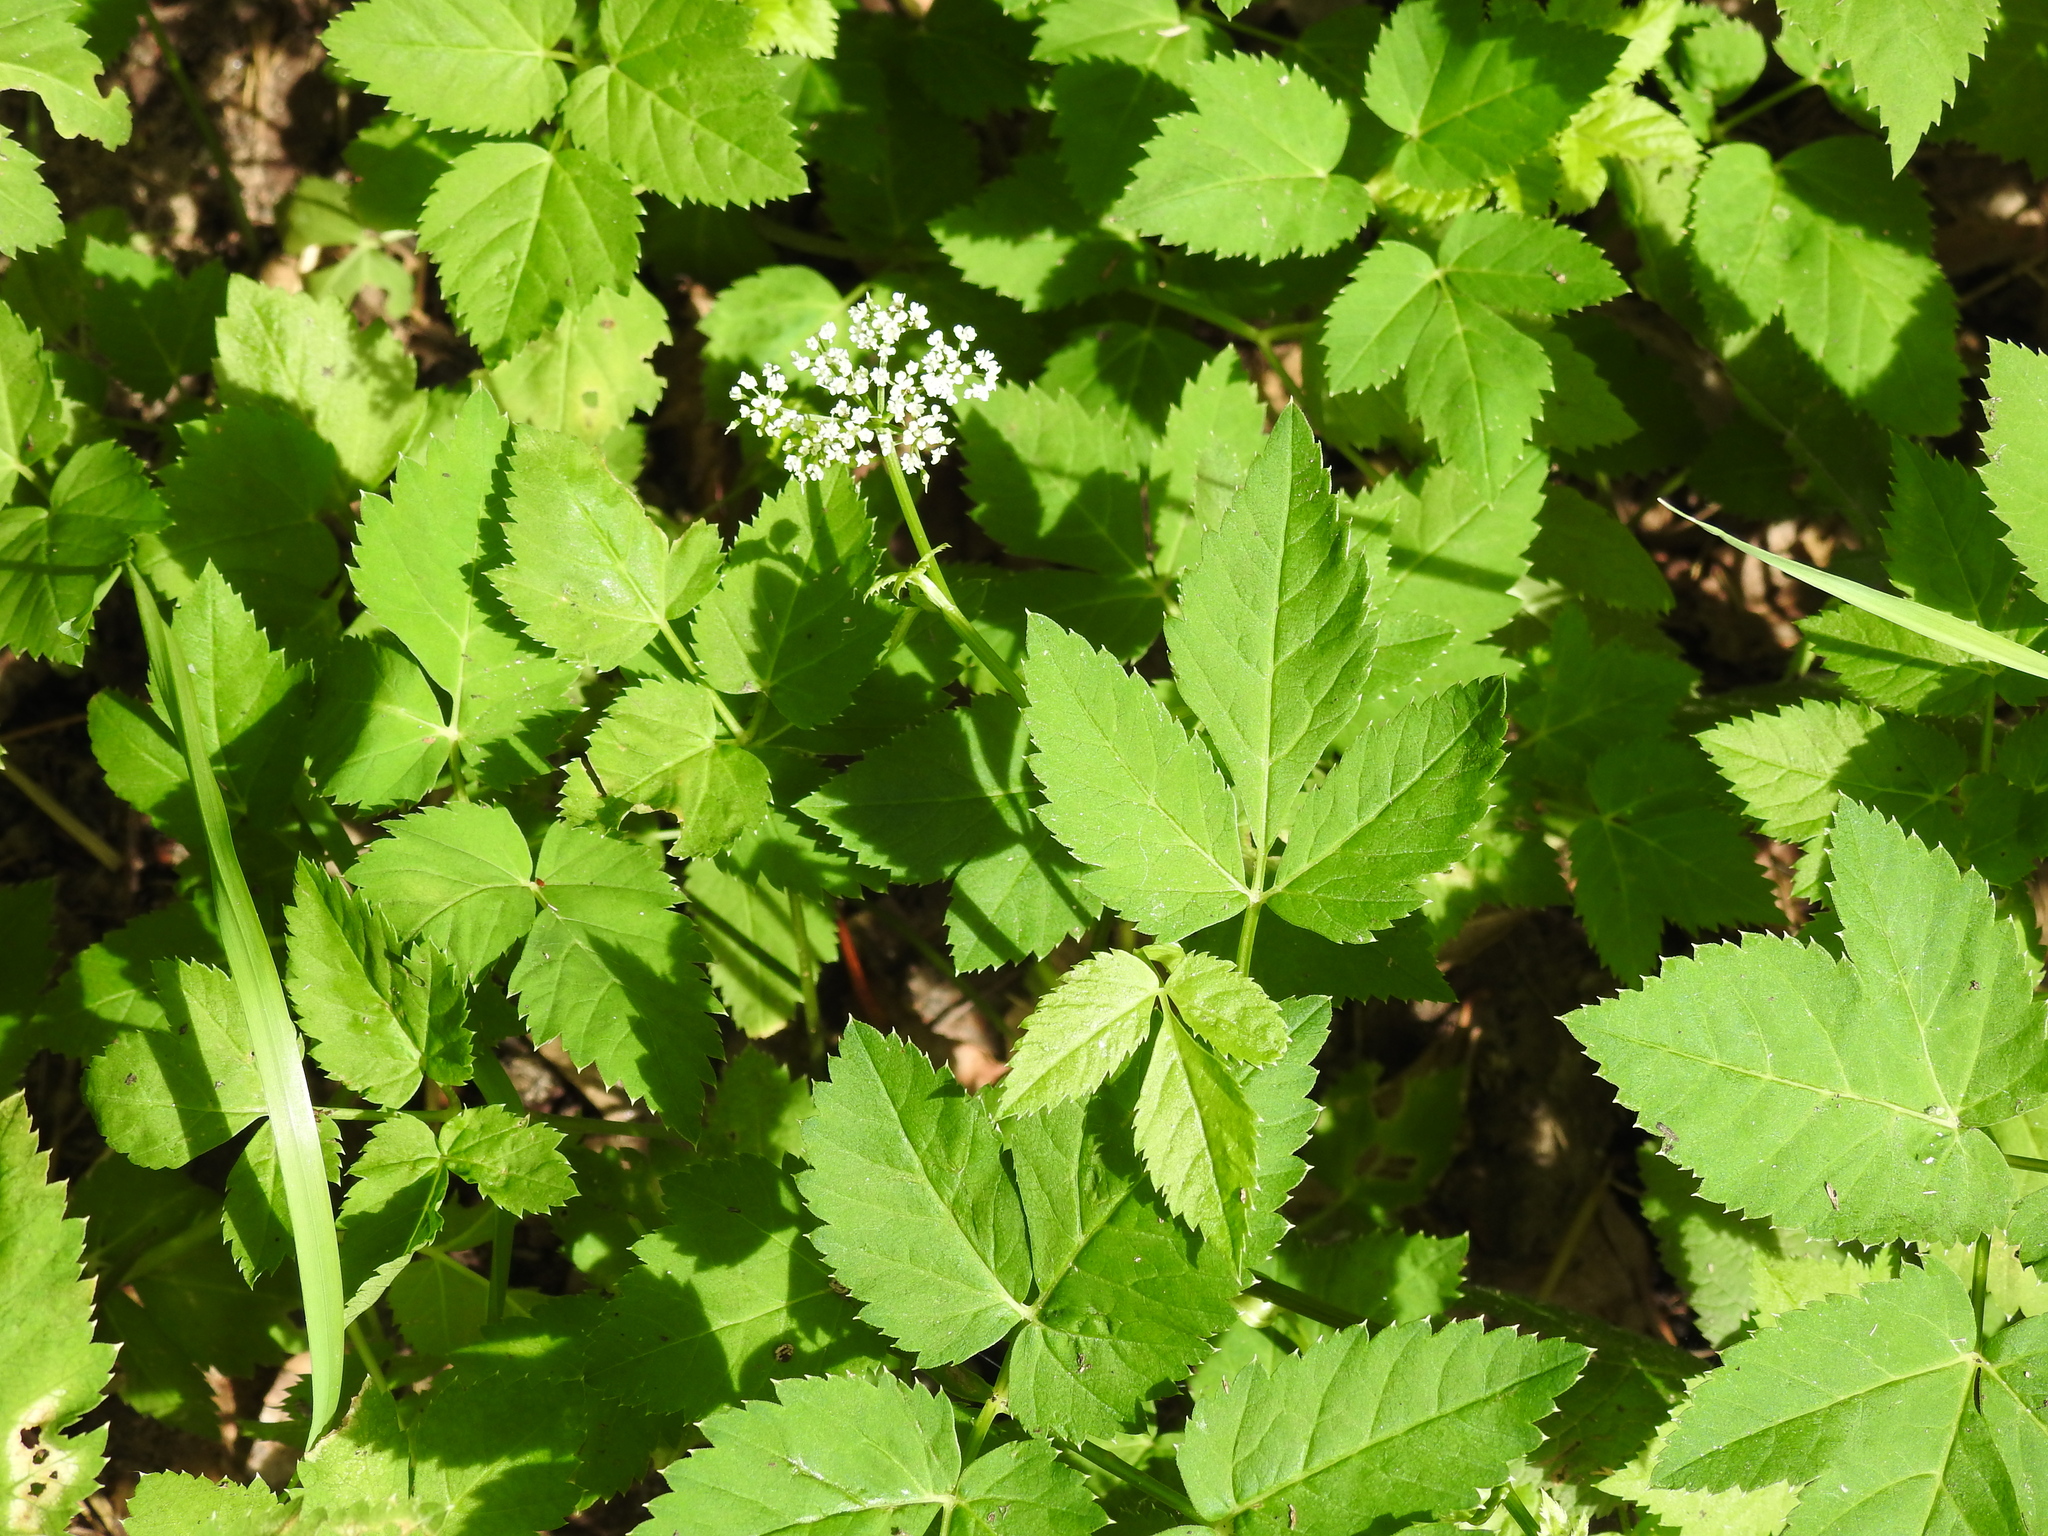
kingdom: Plantae
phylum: Tracheophyta
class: Magnoliopsida
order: Apiales
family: Apiaceae
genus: Aegopodium
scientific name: Aegopodium podagraria
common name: Ground-elder
